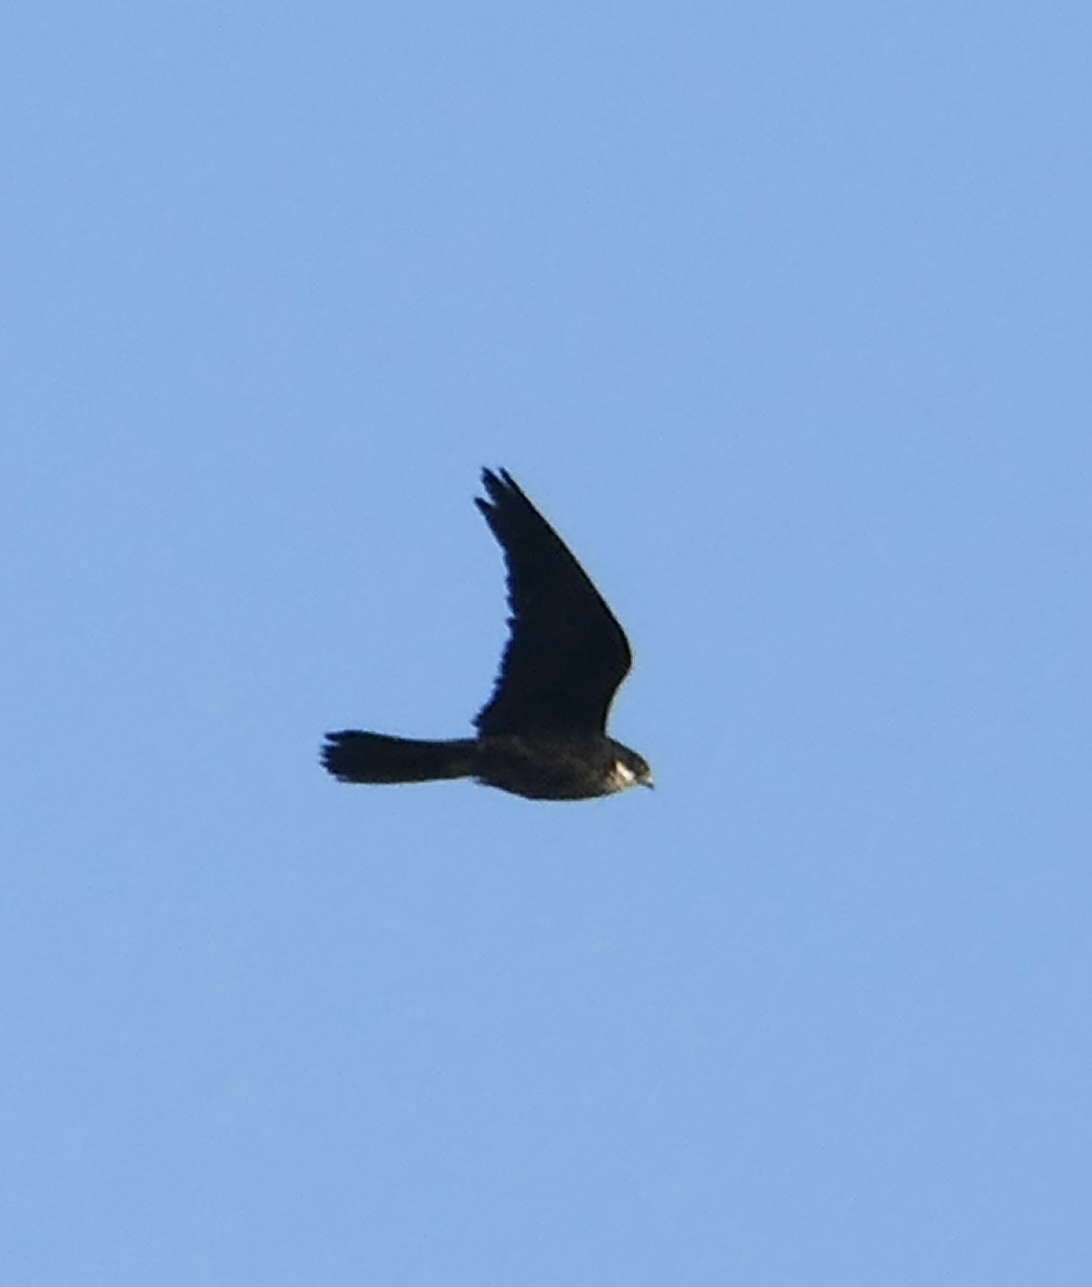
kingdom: Animalia
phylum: Chordata
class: Aves
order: Falconiformes
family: Falconidae
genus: Falco
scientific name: Falco eleonorae
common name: Eleonora's falcon
